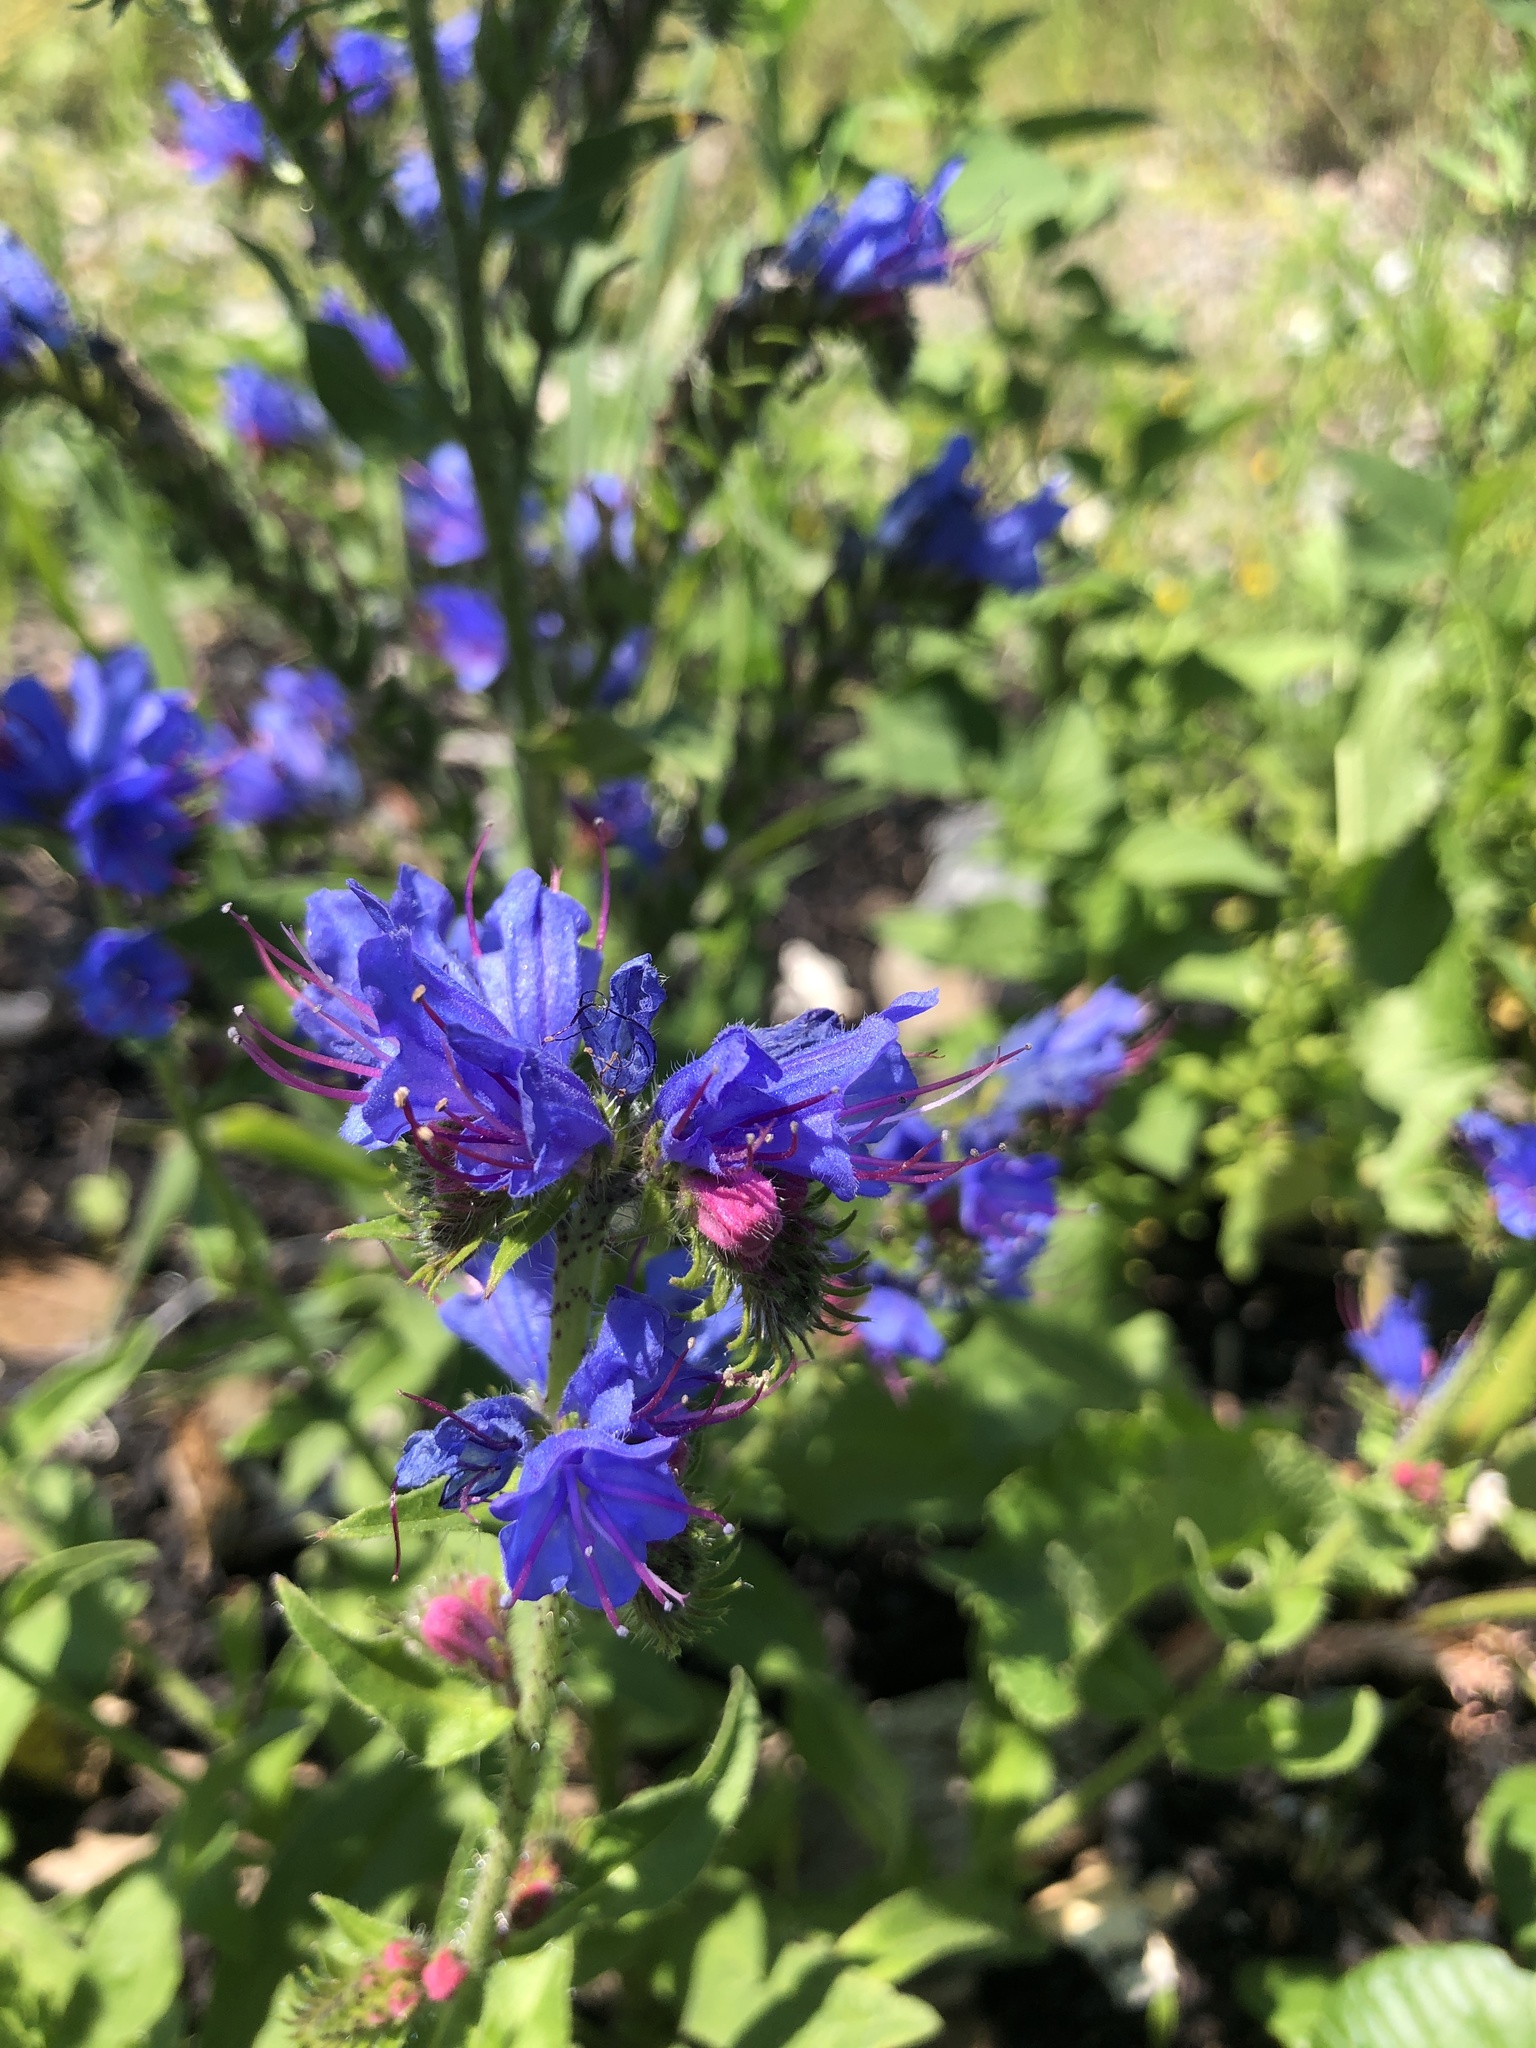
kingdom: Plantae
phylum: Tracheophyta
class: Magnoliopsida
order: Boraginales
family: Boraginaceae
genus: Echium
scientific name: Echium vulgare
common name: Common viper's bugloss
